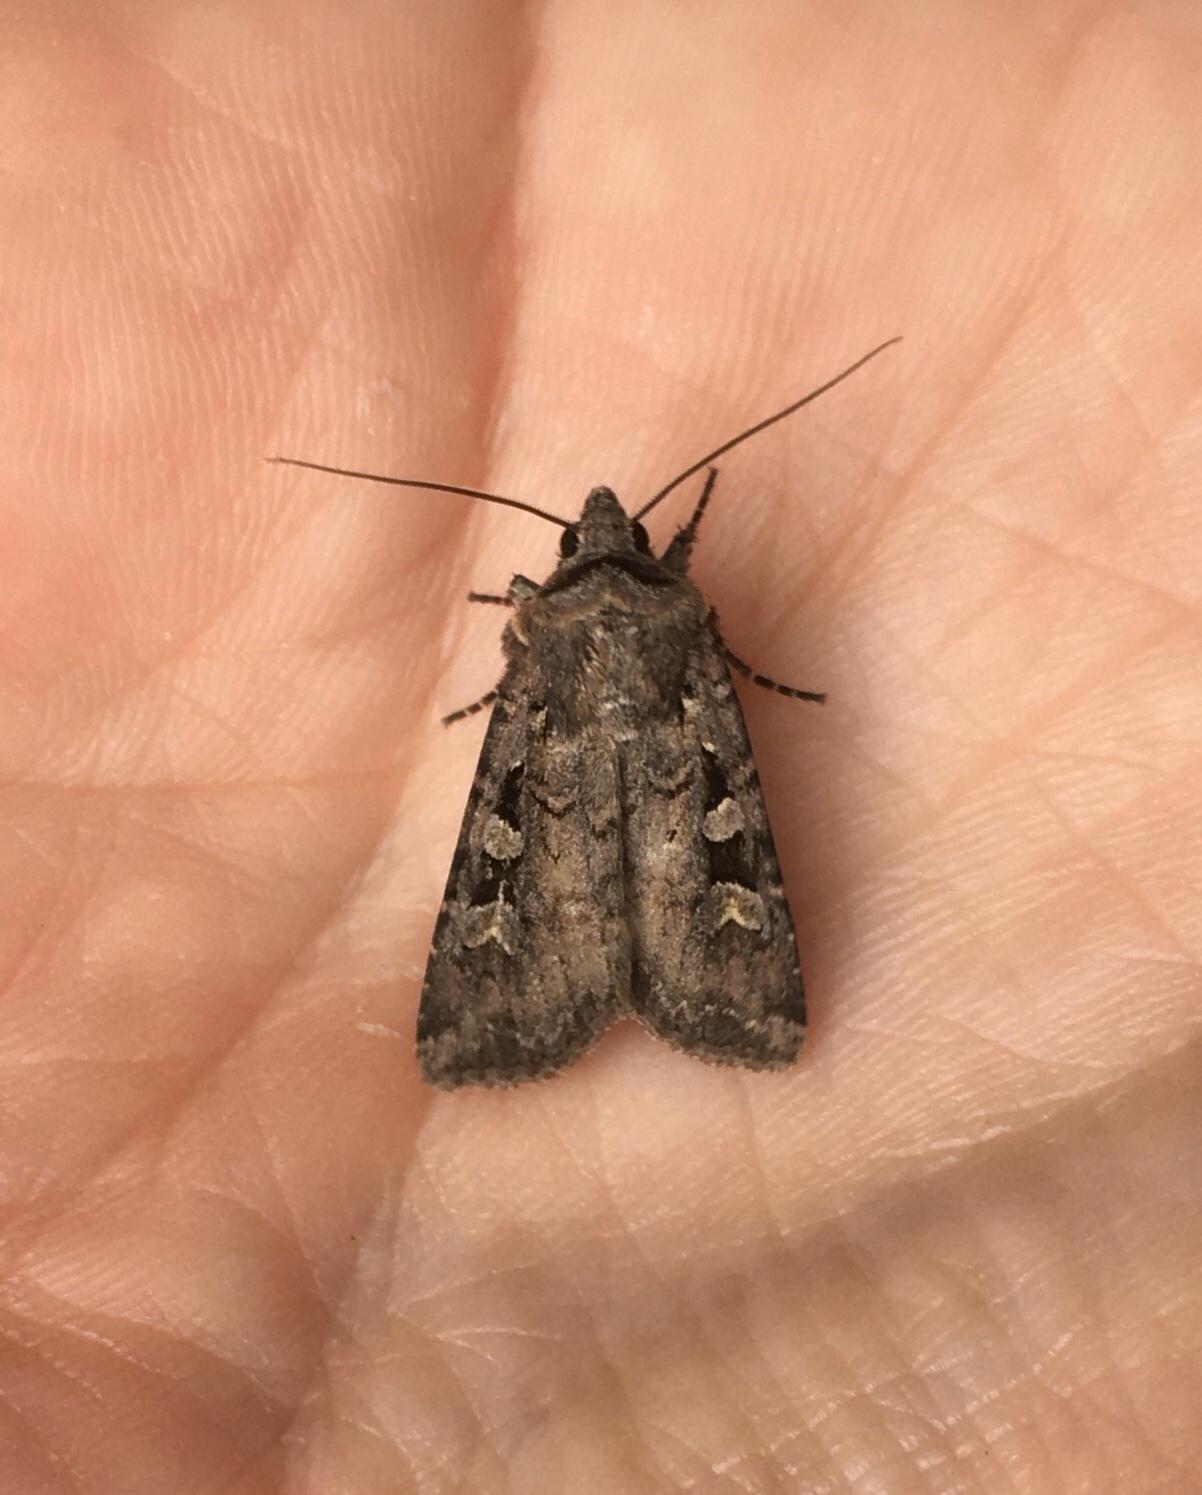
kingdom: Animalia
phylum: Arthropoda
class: Insecta
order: Lepidoptera
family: Noctuidae
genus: Euxoa
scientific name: Euxoa tessellata
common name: Striped cutworm
